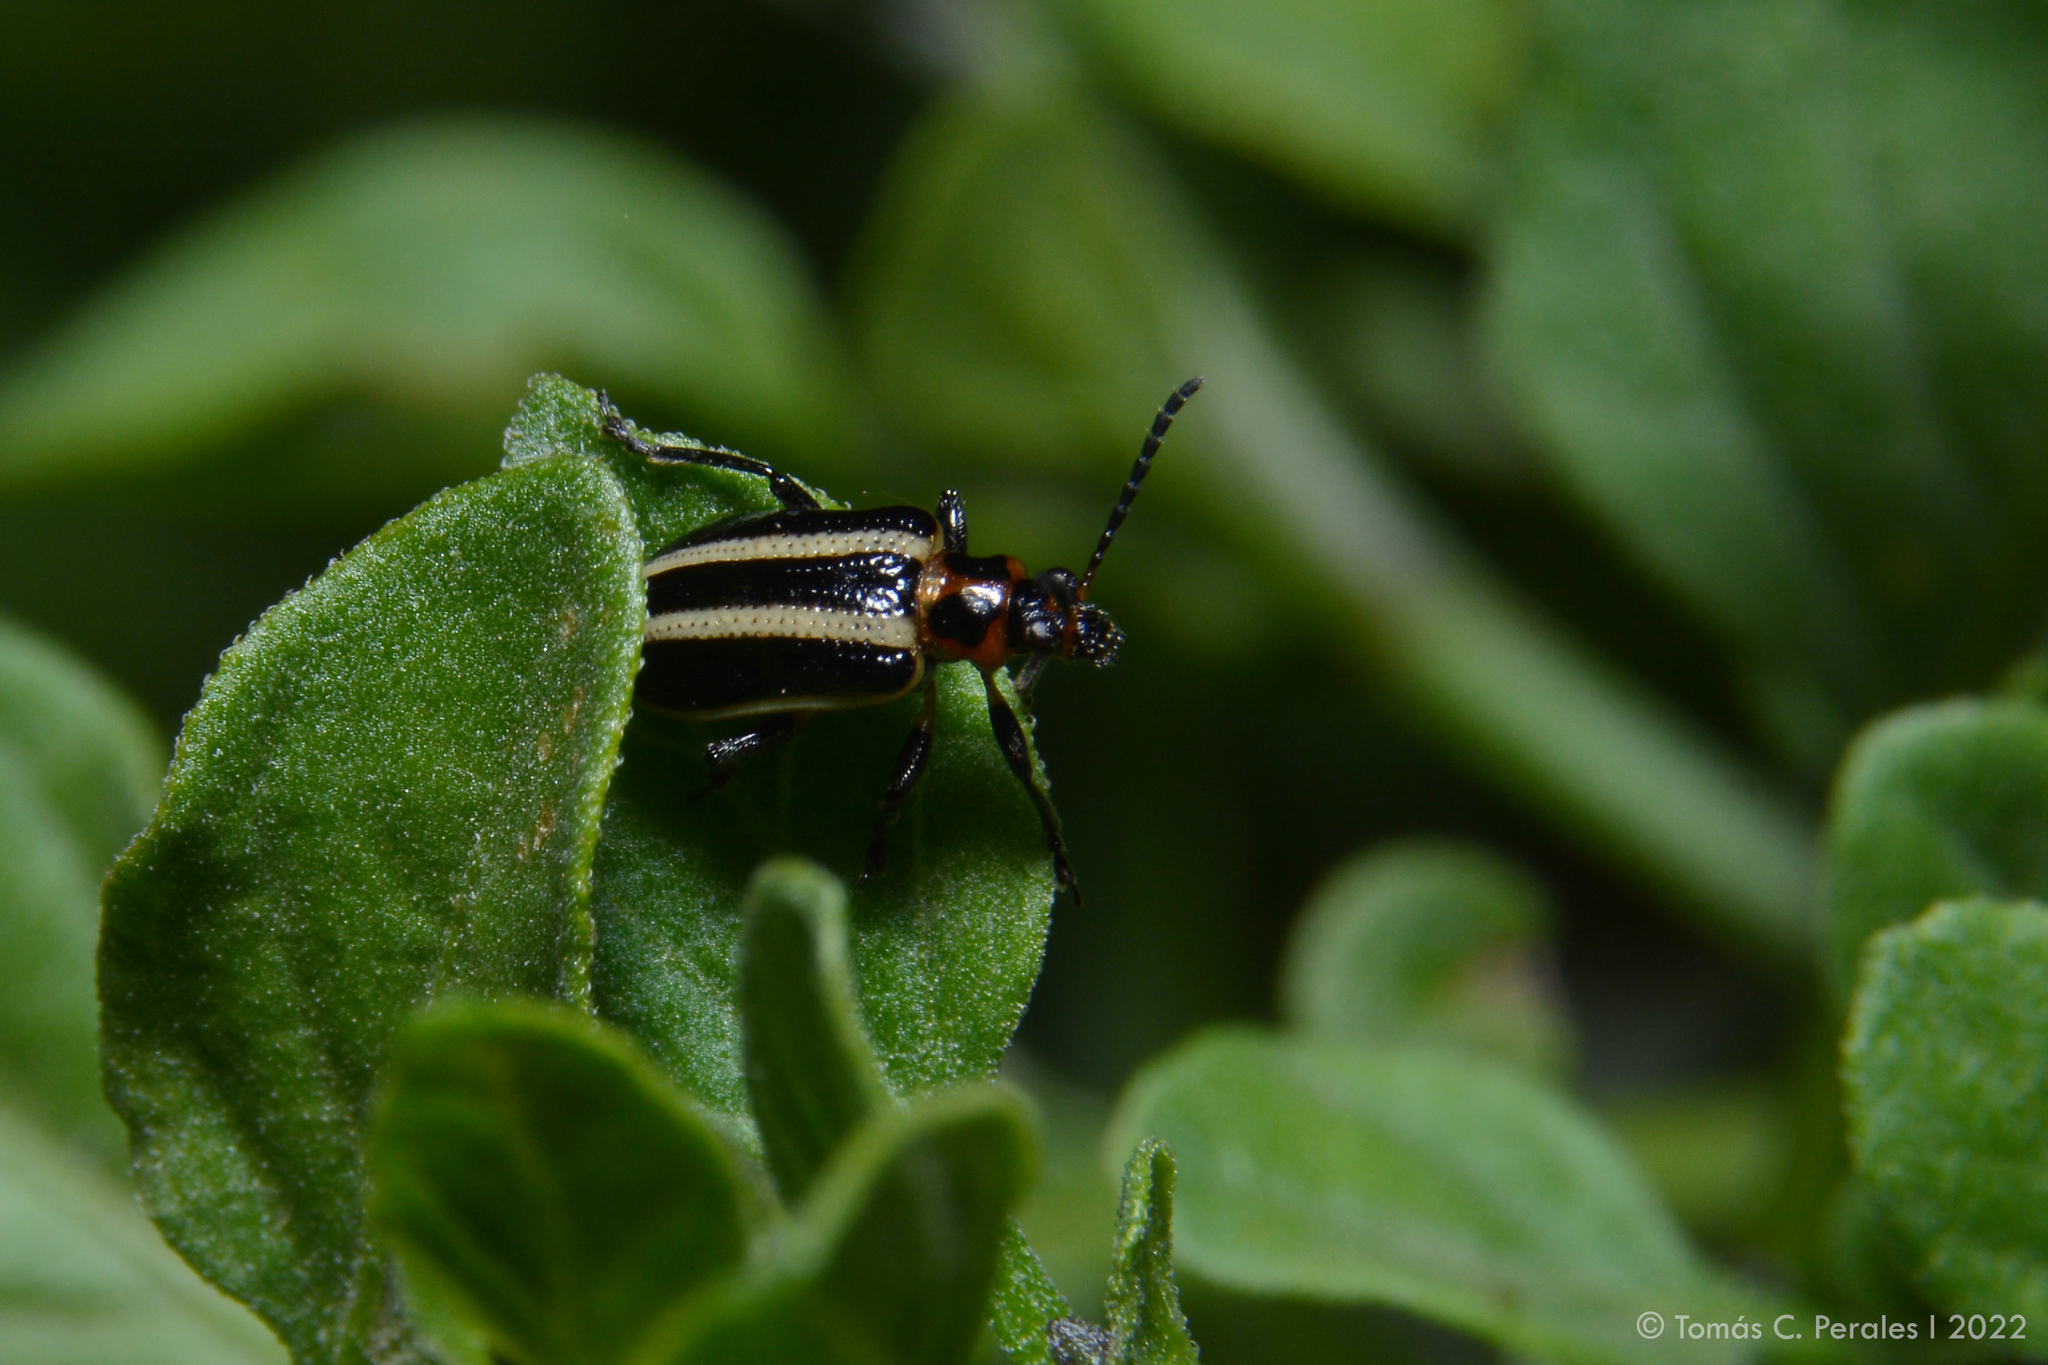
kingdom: Animalia
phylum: Arthropoda
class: Insecta
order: Coleoptera
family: Chrysomelidae
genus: Lema
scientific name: Lema bilineata
